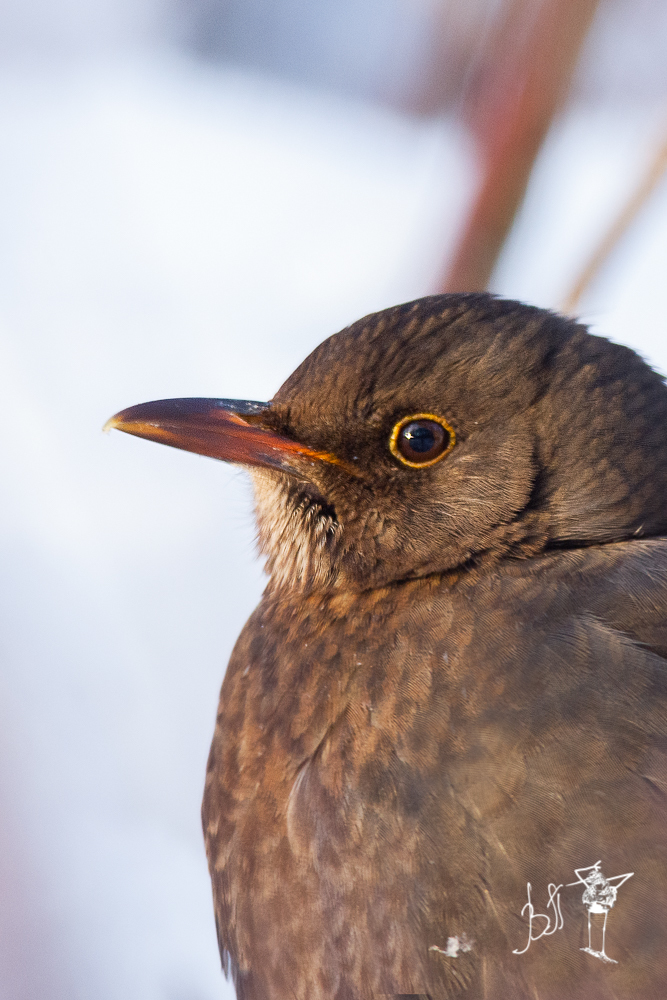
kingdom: Animalia
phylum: Chordata
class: Aves
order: Passeriformes
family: Turdidae
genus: Turdus
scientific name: Turdus merula
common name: Common blackbird
